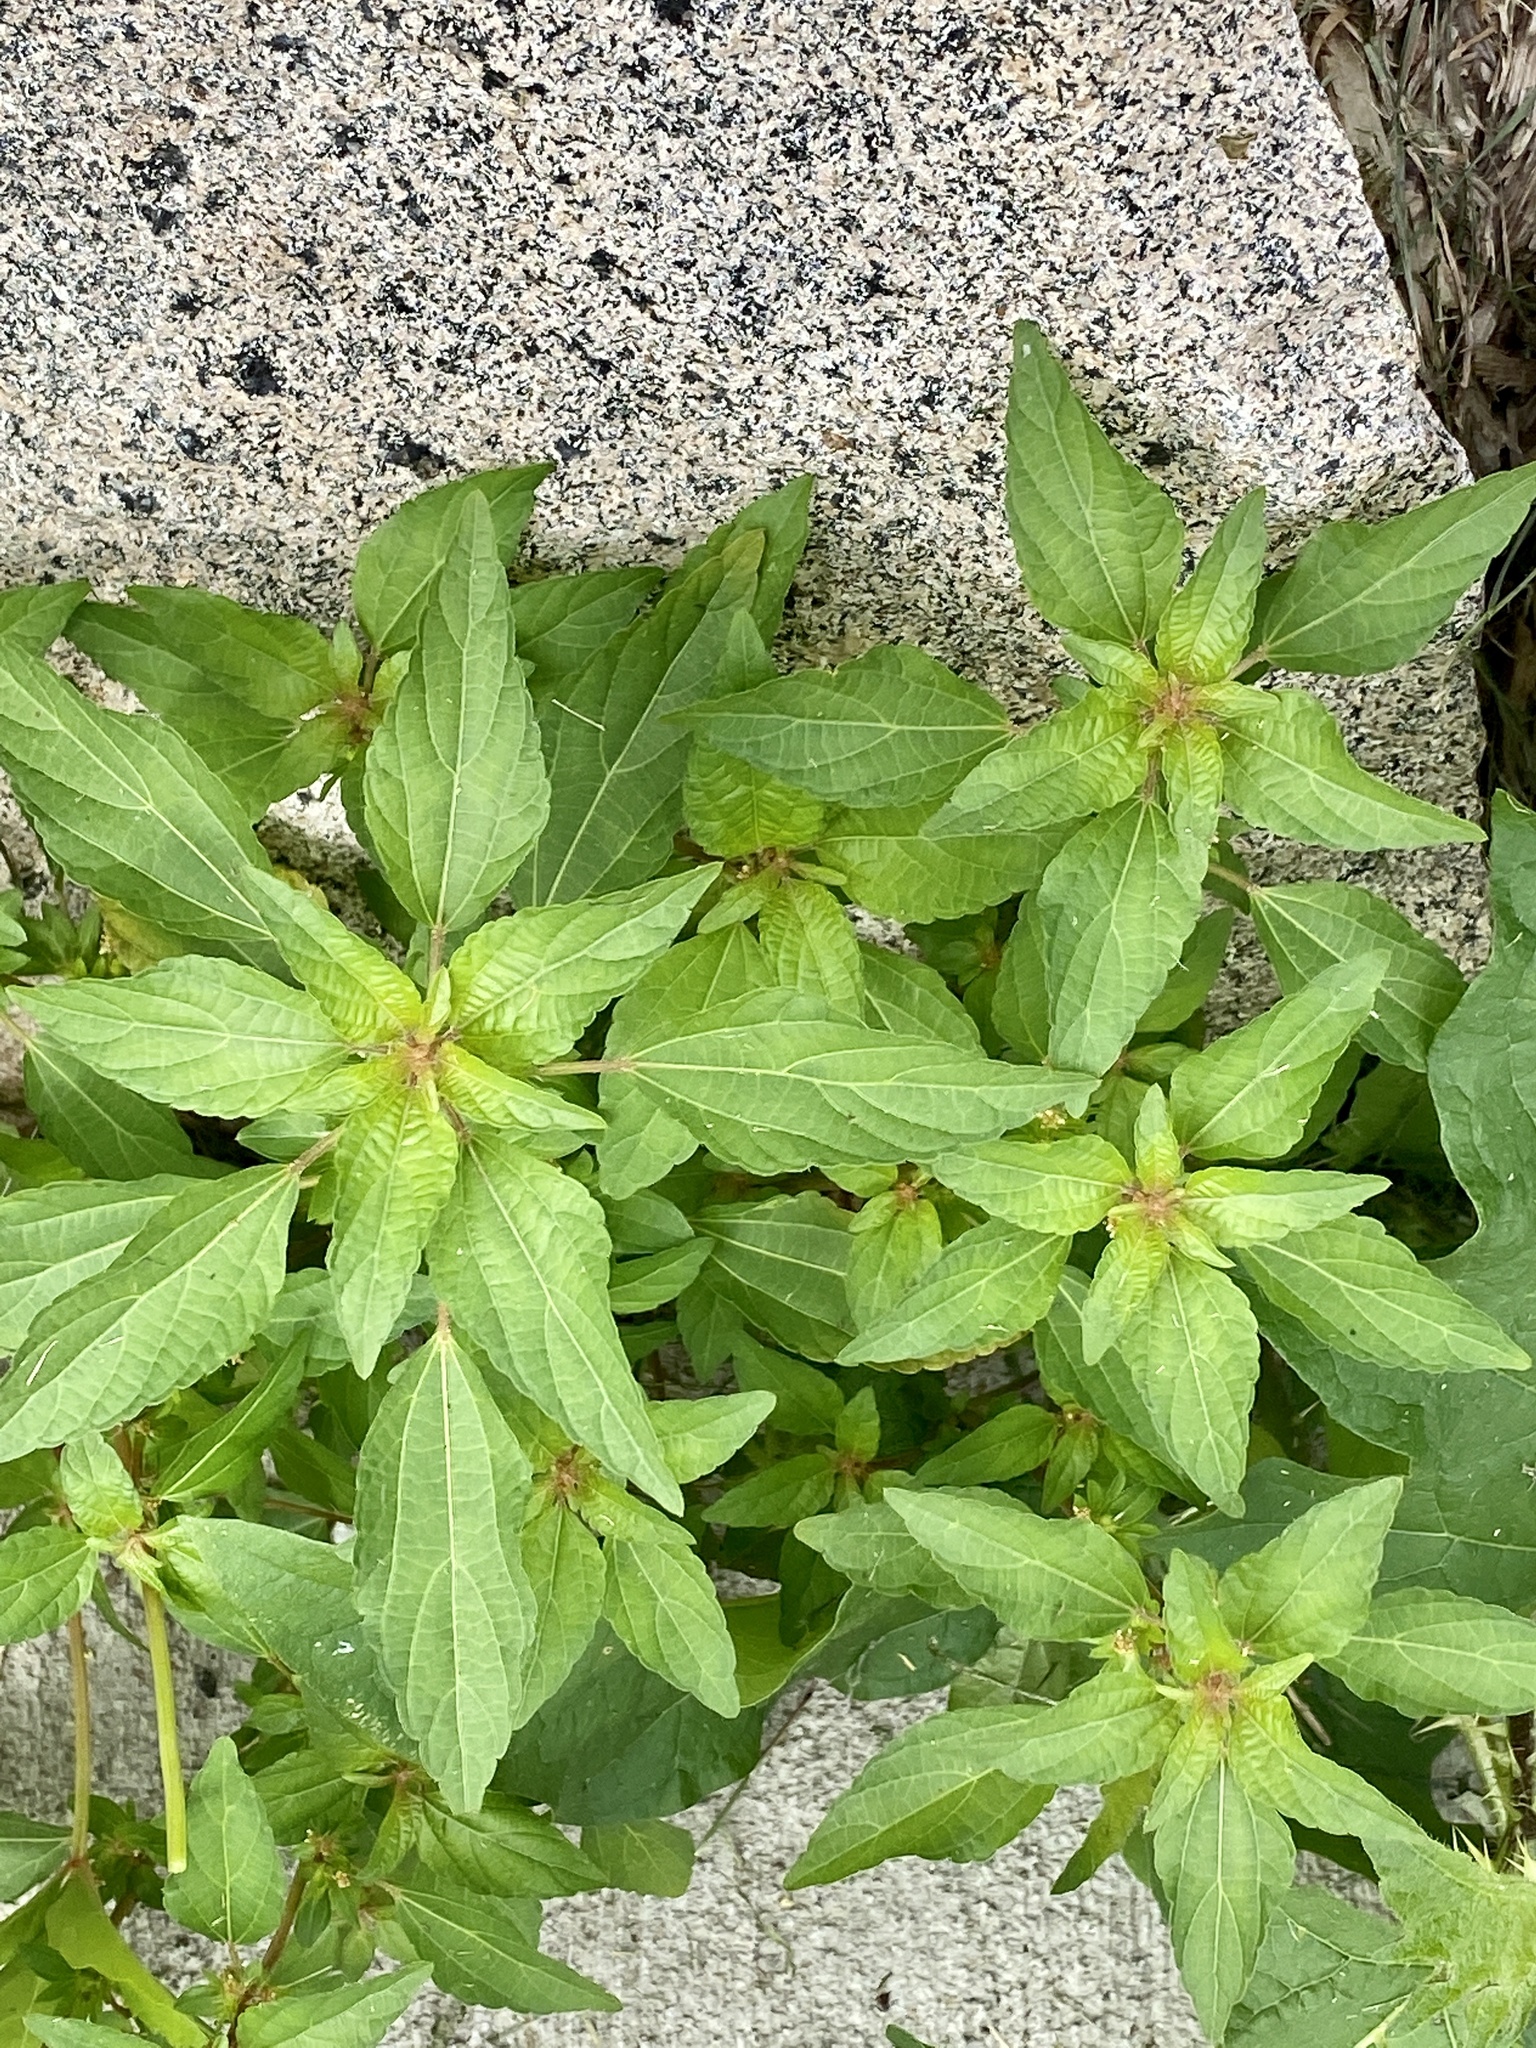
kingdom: Plantae
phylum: Tracheophyta
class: Magnoliopsida
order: Malpighiales
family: Euphorbiaceae
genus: Acalypha
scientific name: Acalypha rhomboidea
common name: Rhombic copperleaf
